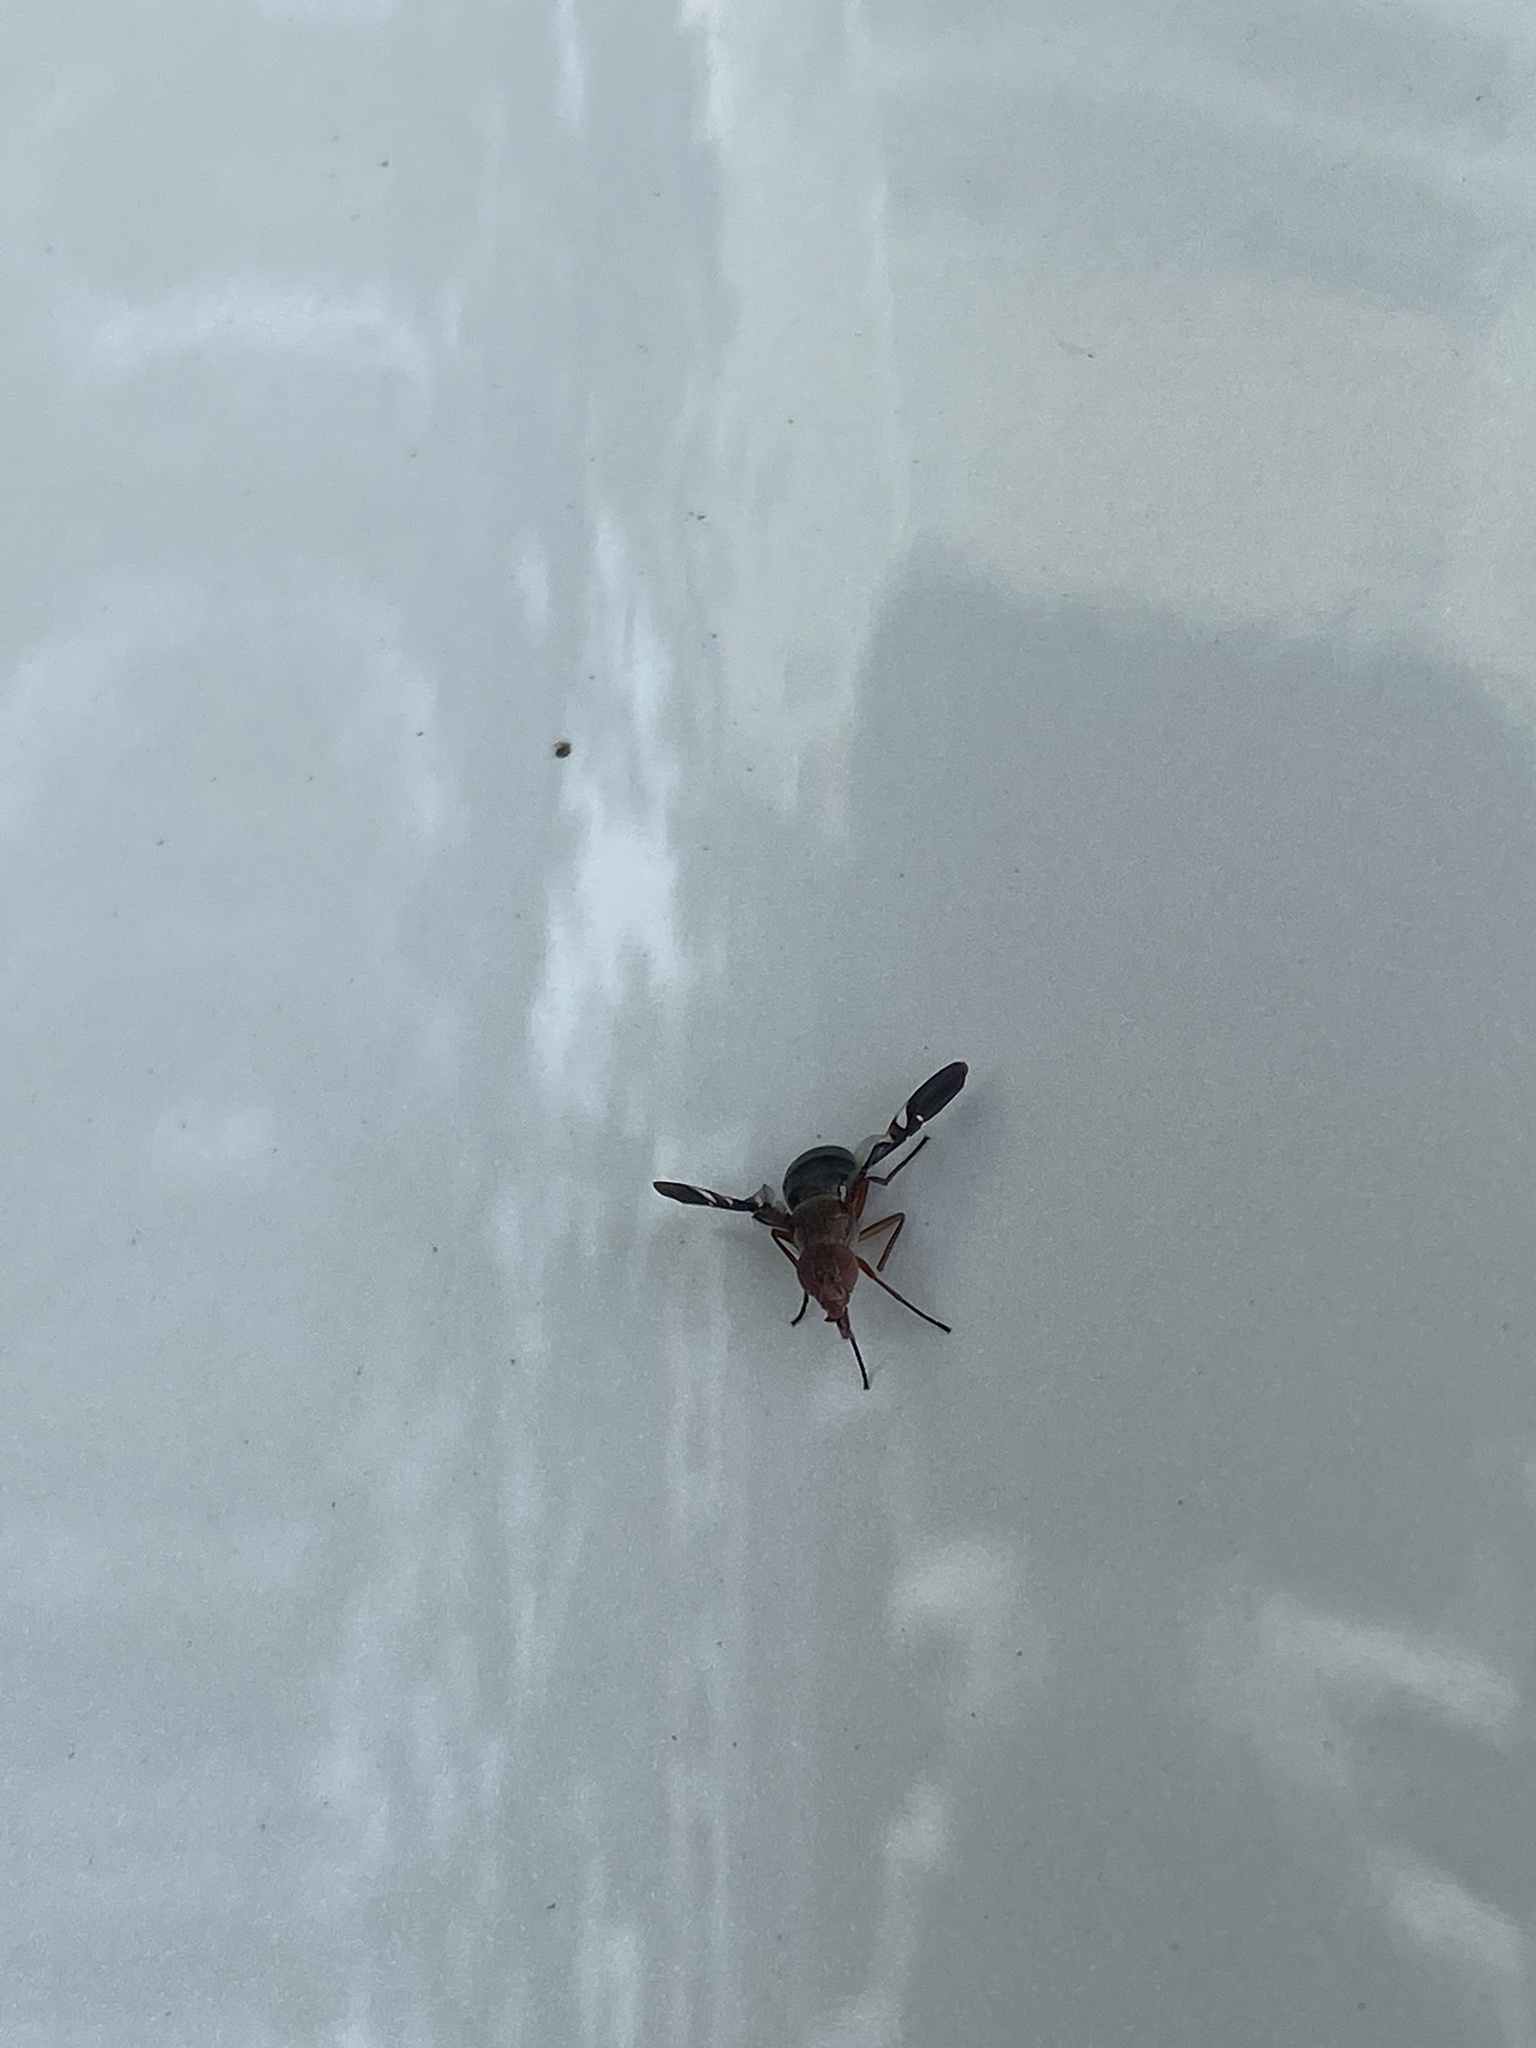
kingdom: Animalia
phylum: Arthropoda
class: Insecta
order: Diptera
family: Ulidiidae
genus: Delphinia
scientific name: Delphinia picta
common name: Common picture-winged fly
